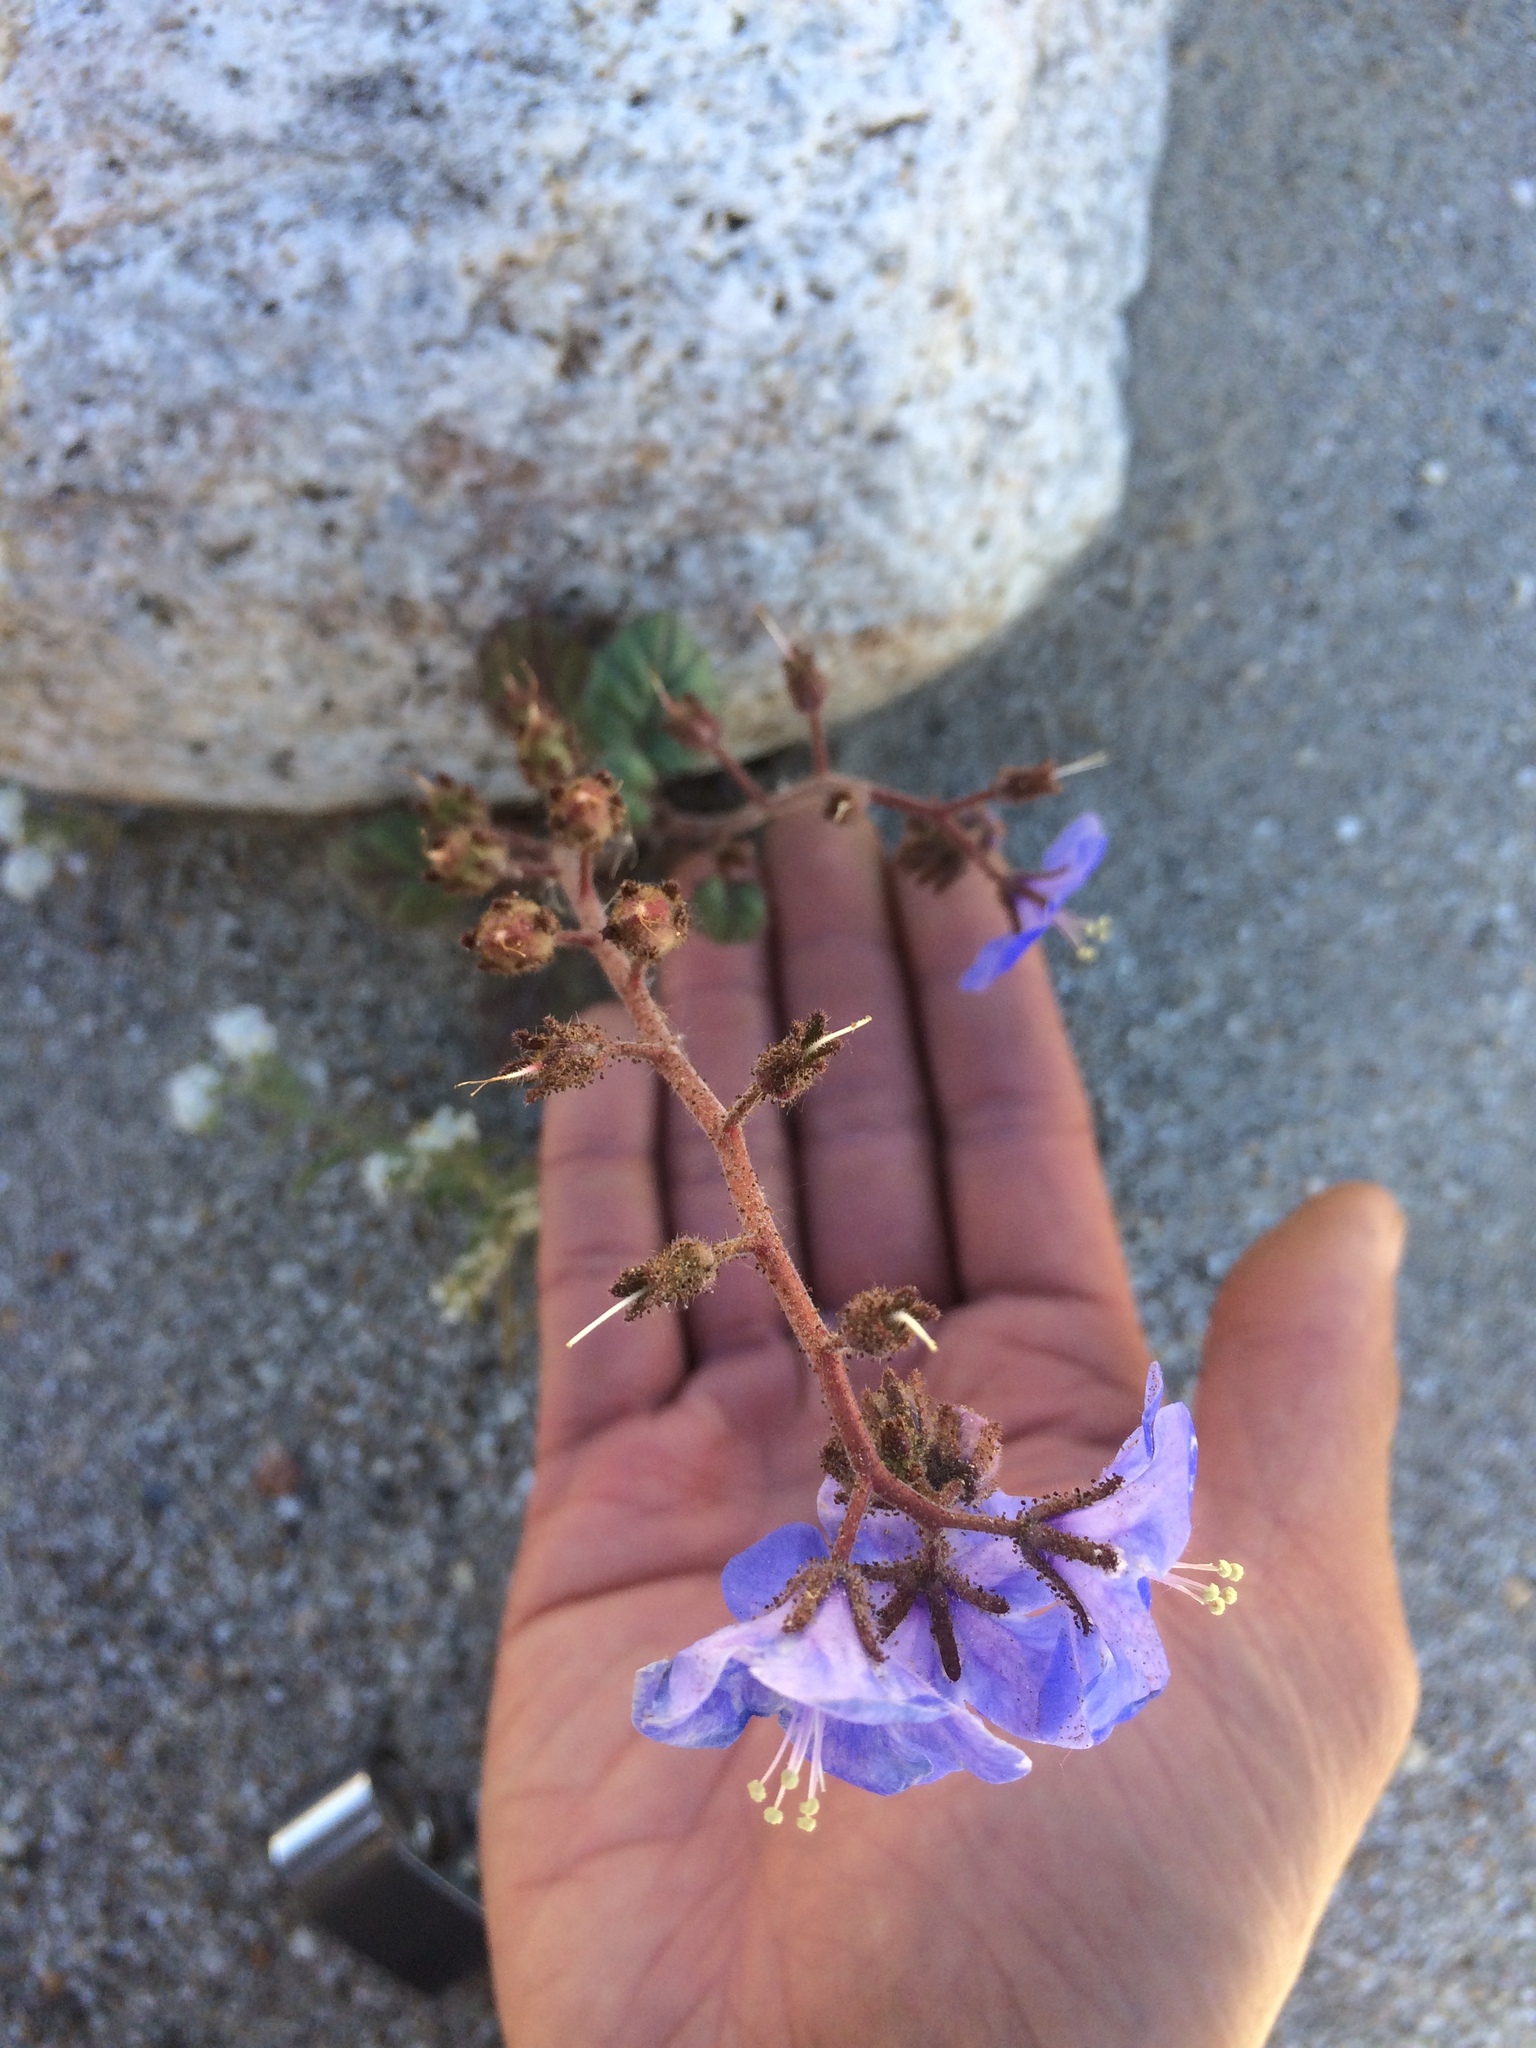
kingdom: Plantae
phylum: Tracheophyta
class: Magnoliopsida
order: Boraginales
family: Hydrophyllaceae
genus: Phacelia
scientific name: Phacelia campanularia
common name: California bluebell
